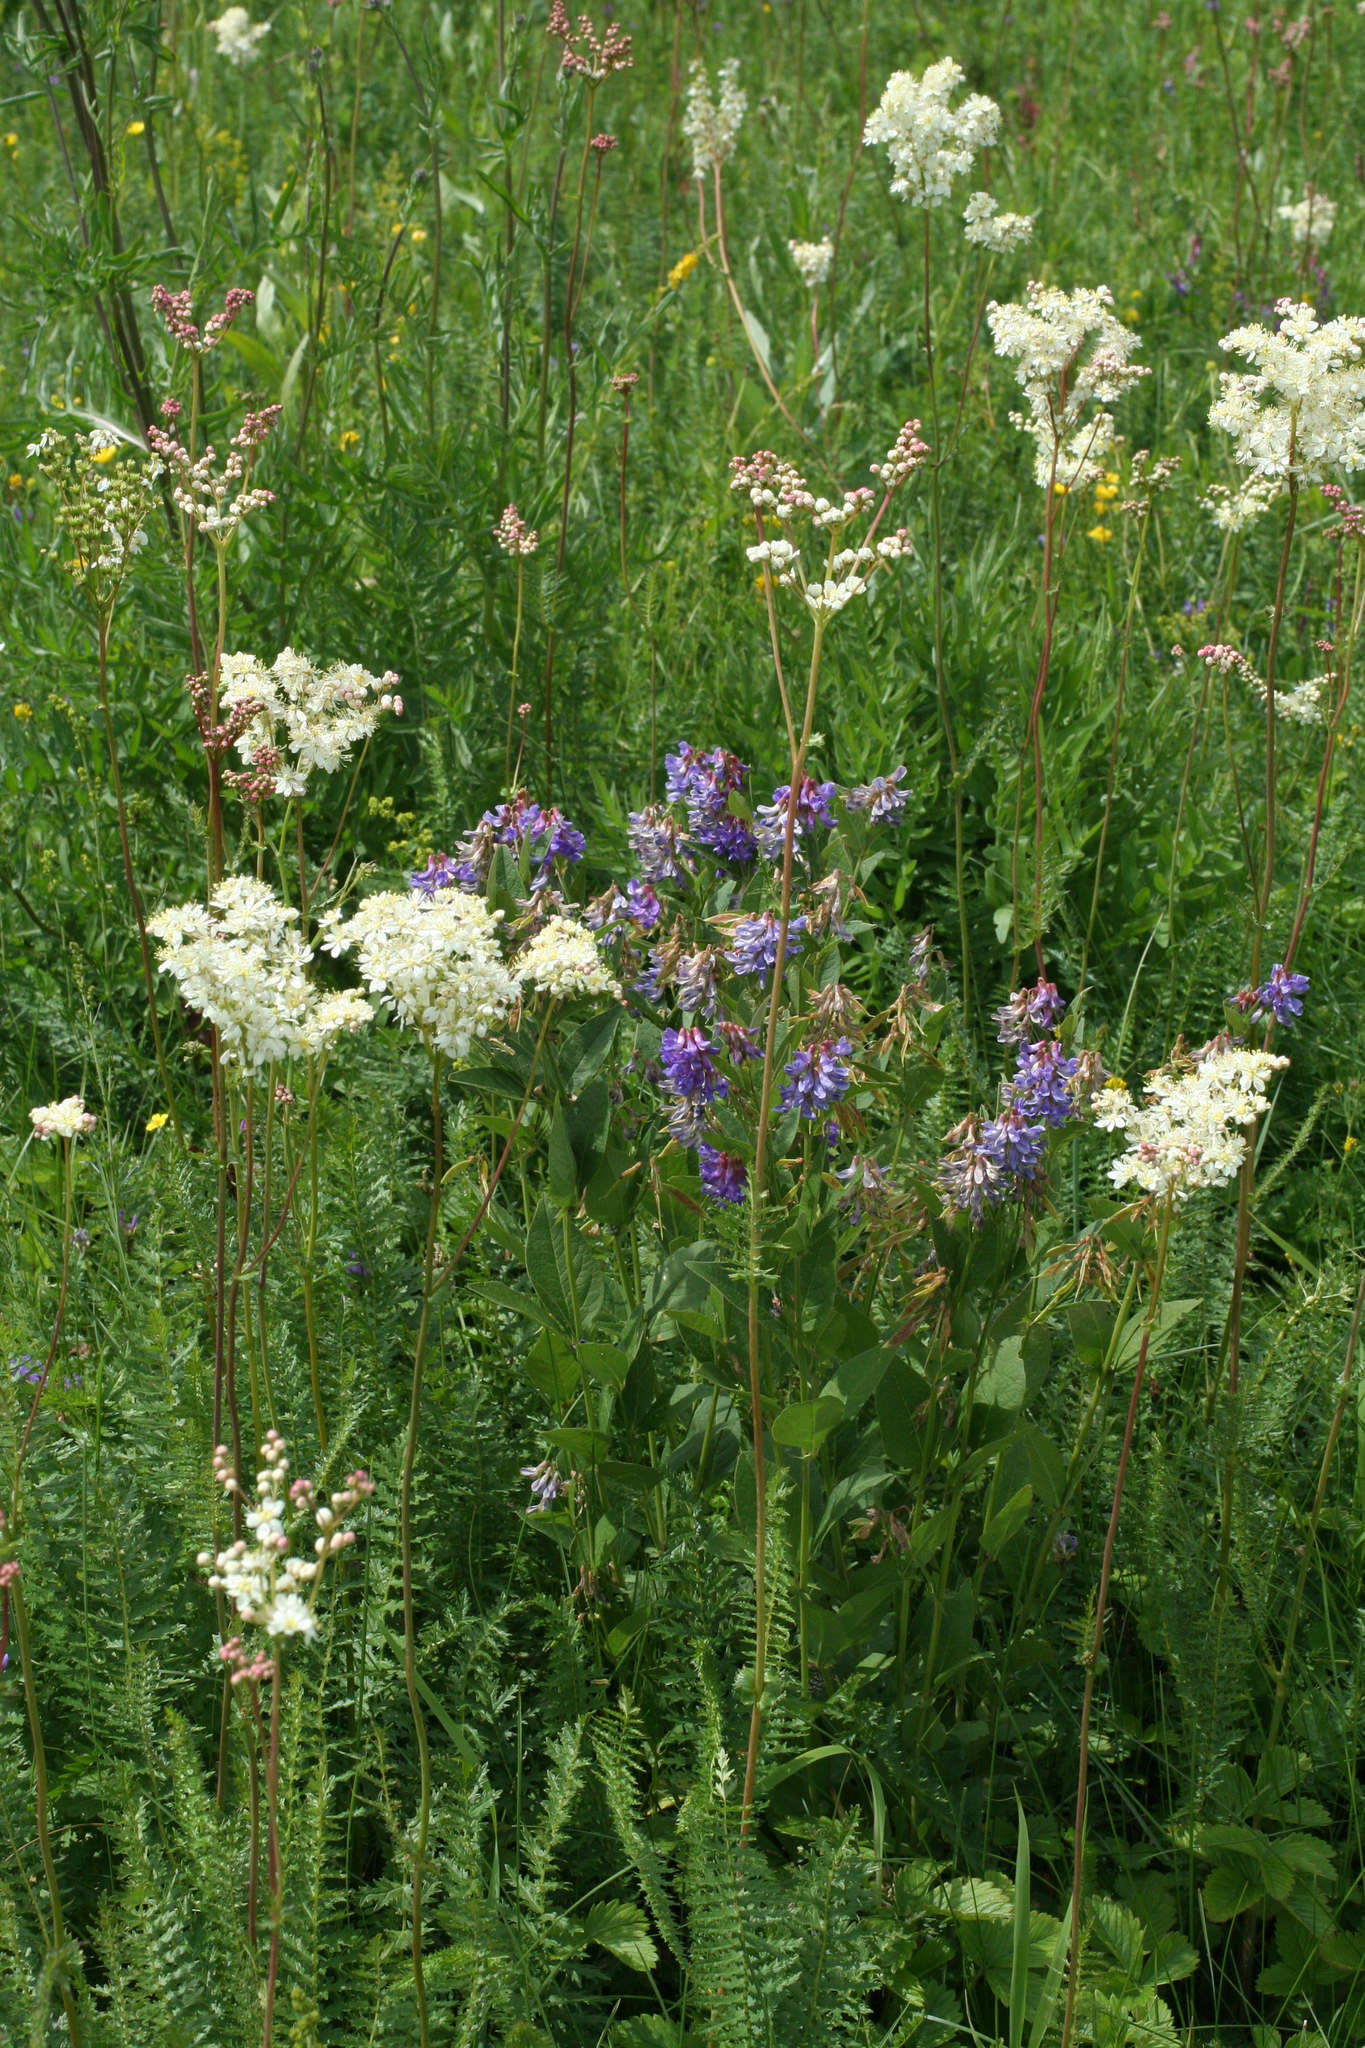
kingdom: Plantae
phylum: Tracheophyta
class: Magnoliopsida
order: Fabales
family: Fabaceae
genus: Oxytropis
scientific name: Oxytropis campanulata
